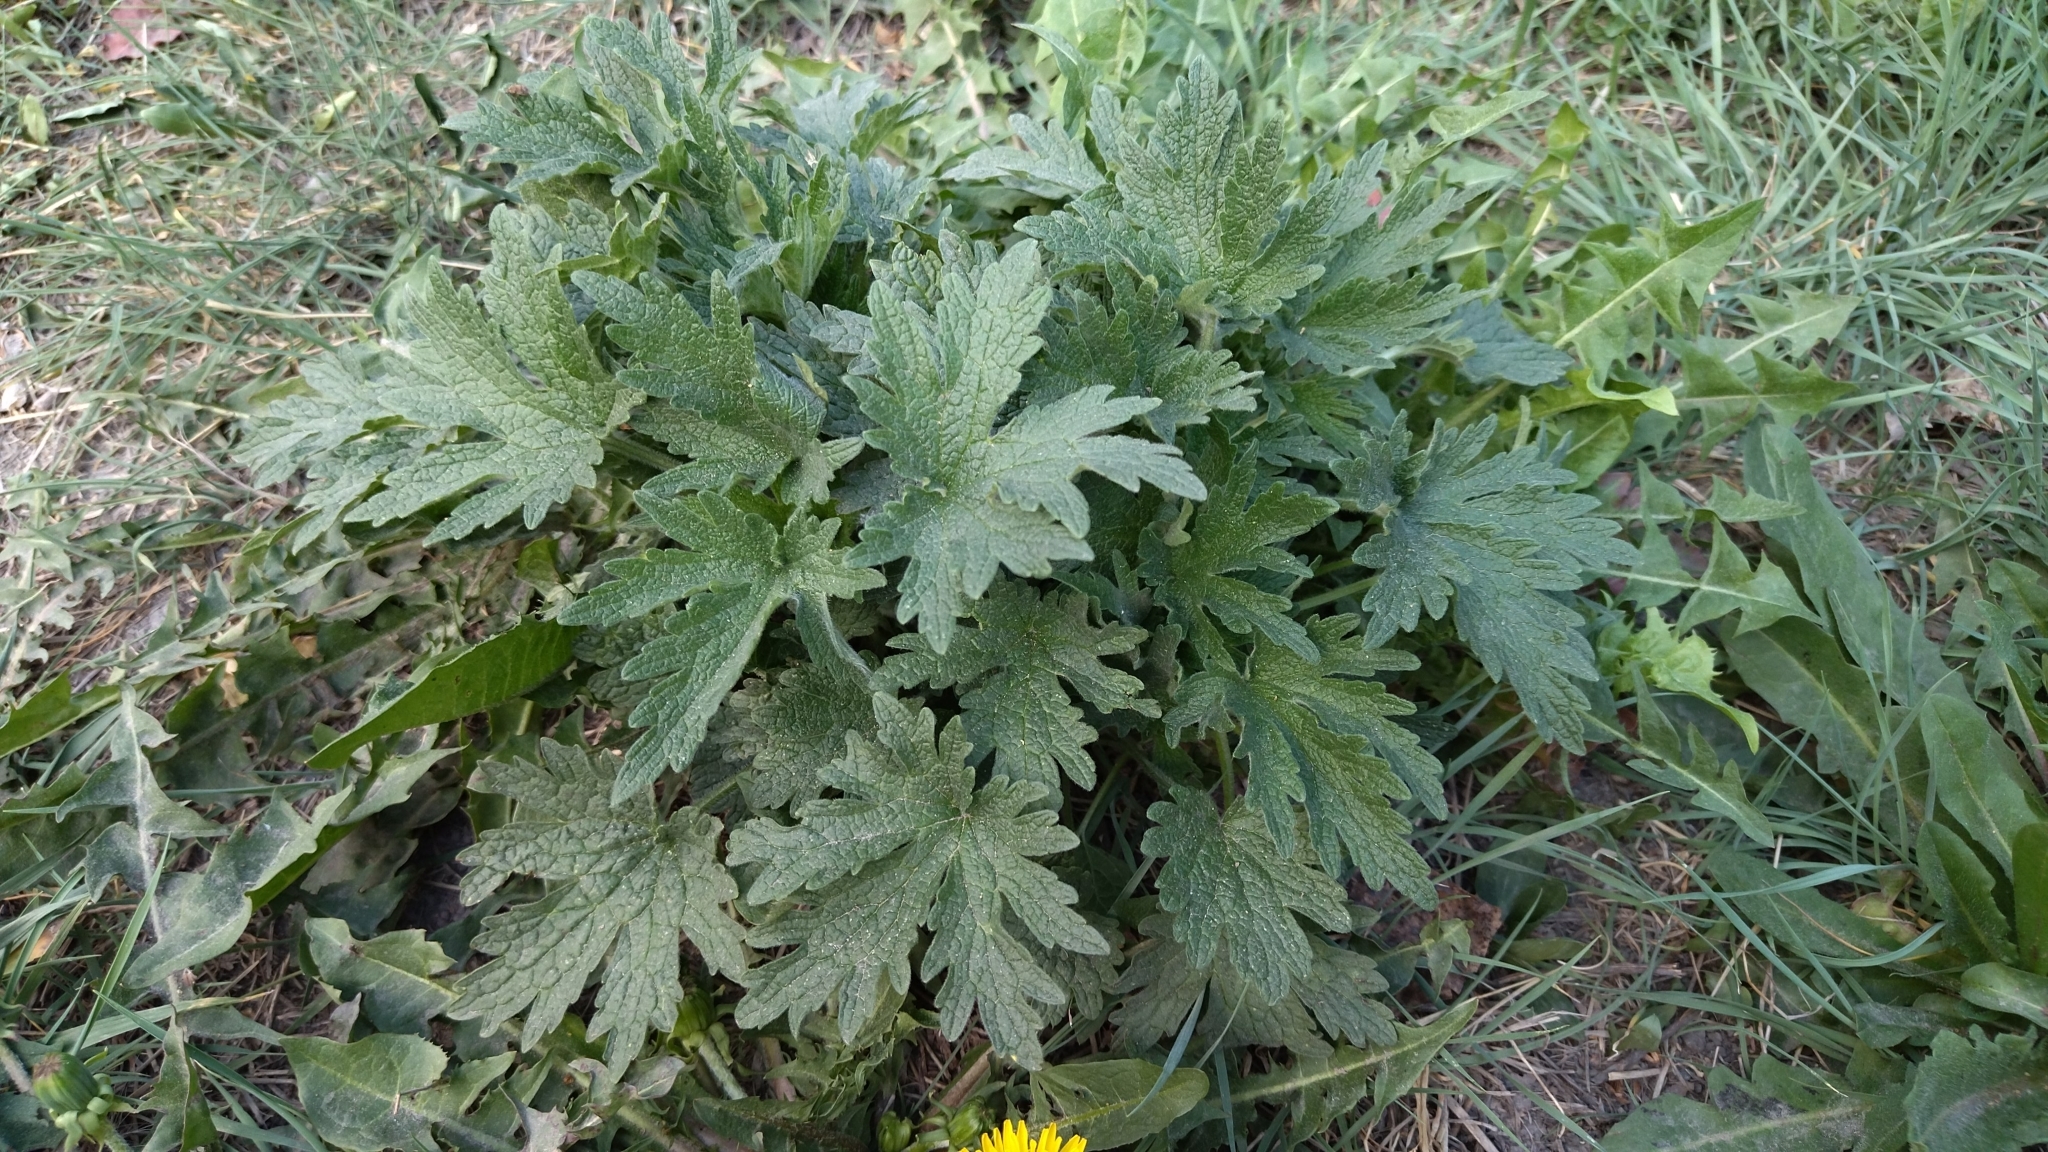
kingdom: Plantae
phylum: Tracheophyta
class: Magnoliopsida
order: Lamiales
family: Lamiaceae
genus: Leonurus
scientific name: Leonurus quinquelobatus
